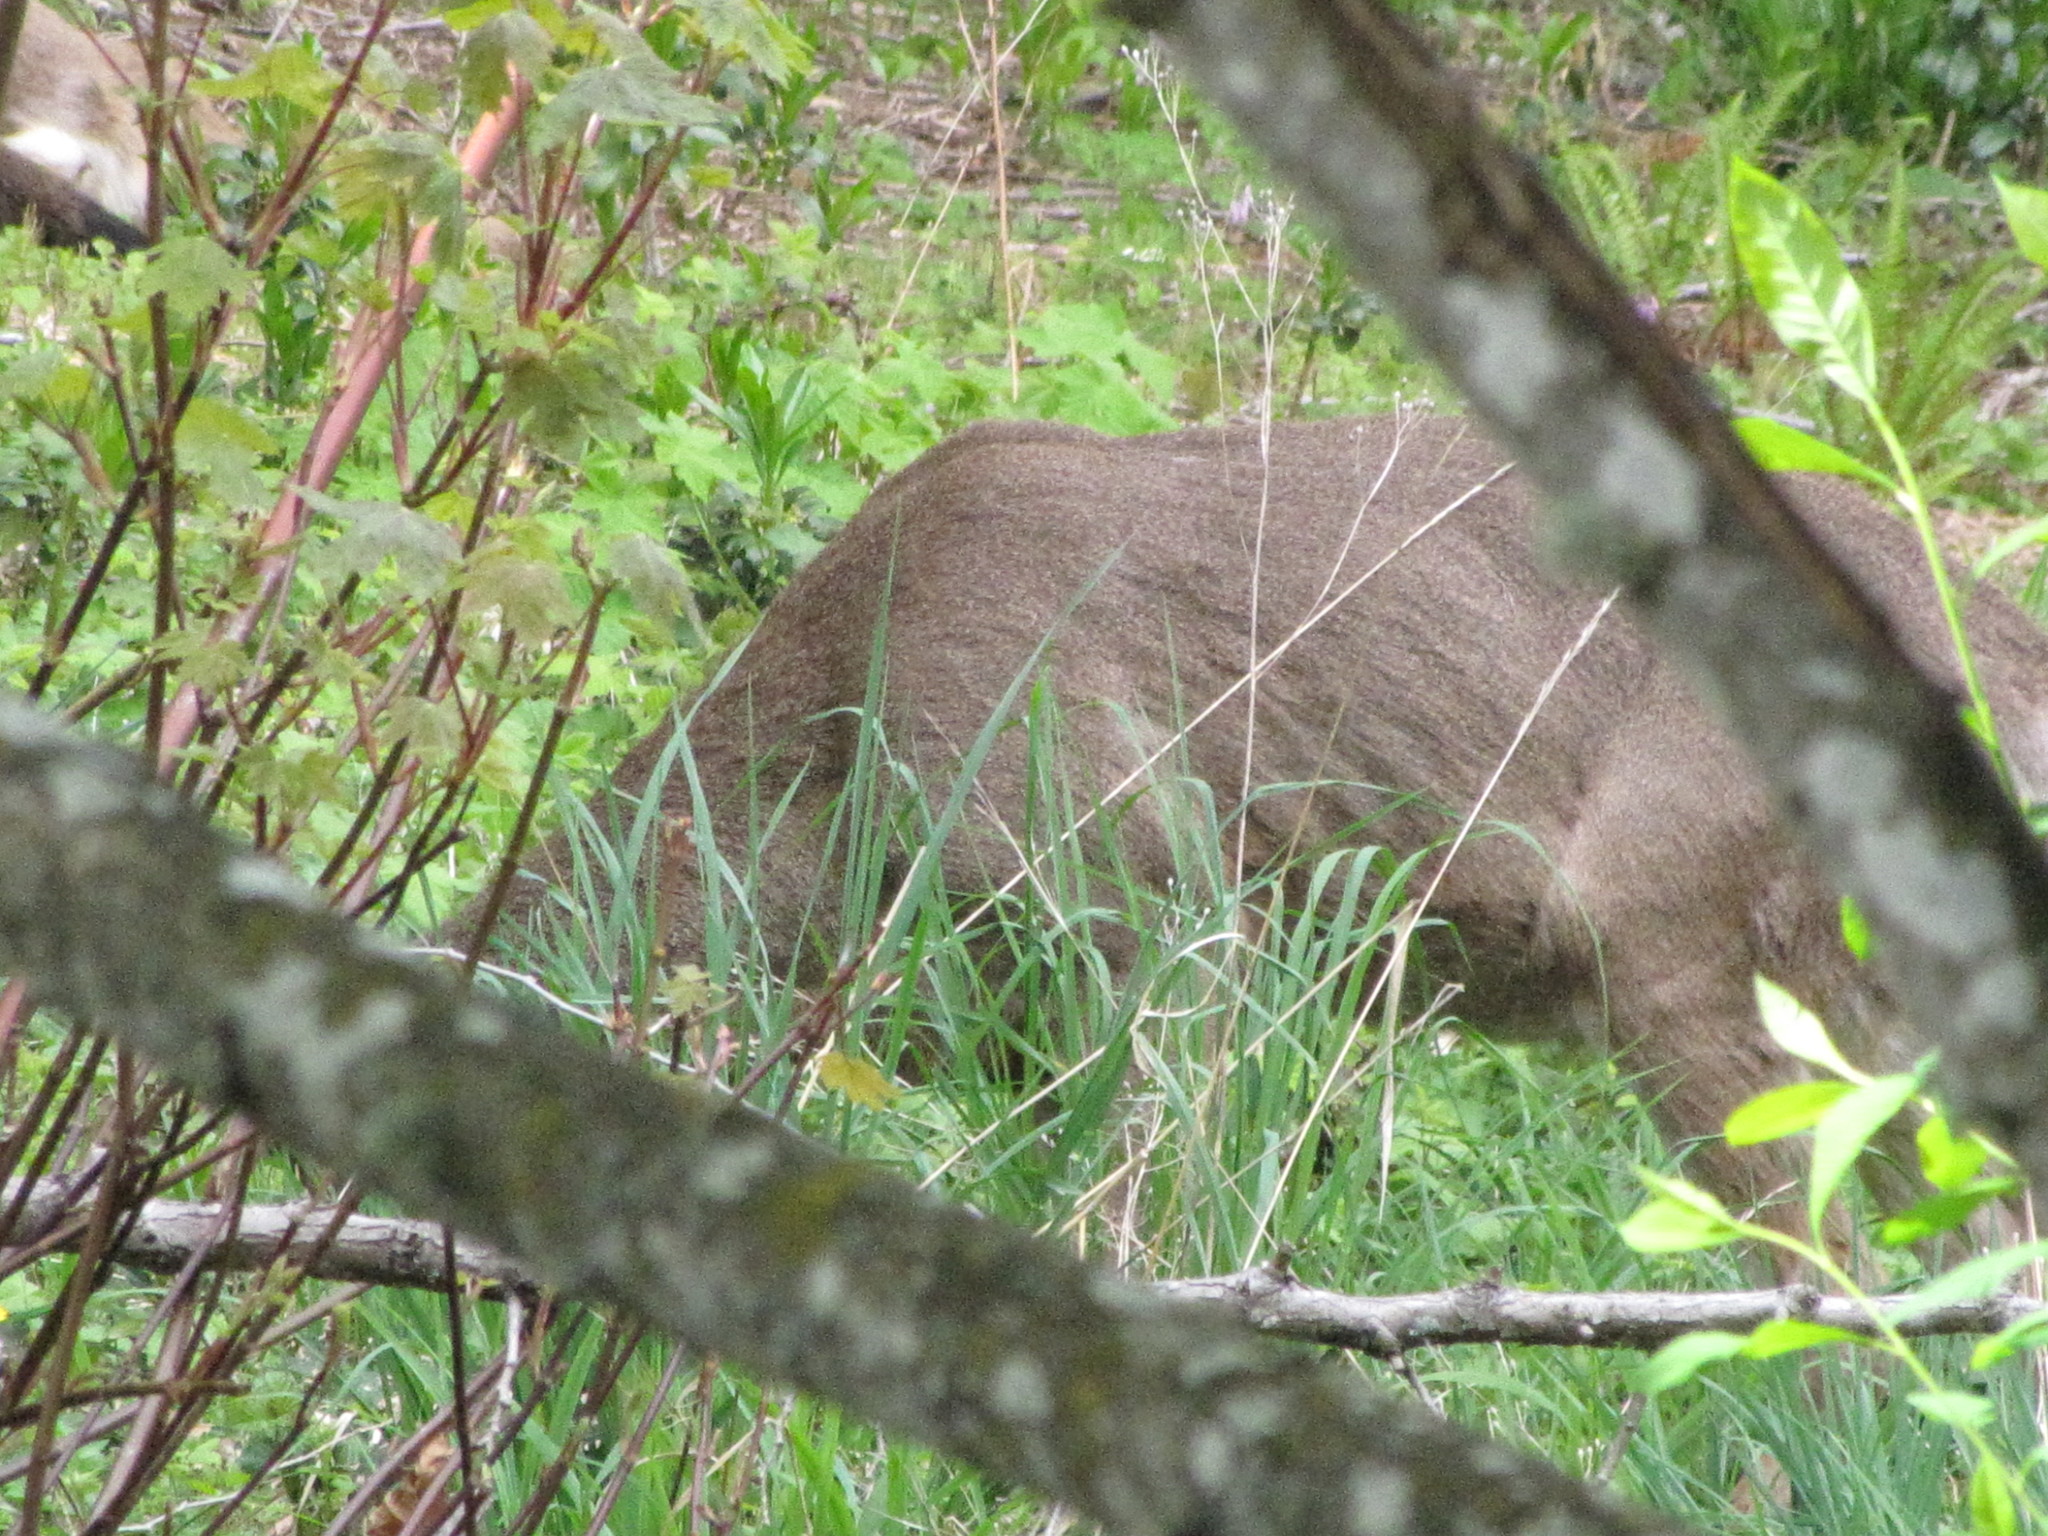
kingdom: Animalia
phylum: Chordata
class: Mammalia
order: Artiodactyla
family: Cervidae
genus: Odocoileus
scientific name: Odocoileus hemionus
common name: Mule deer
